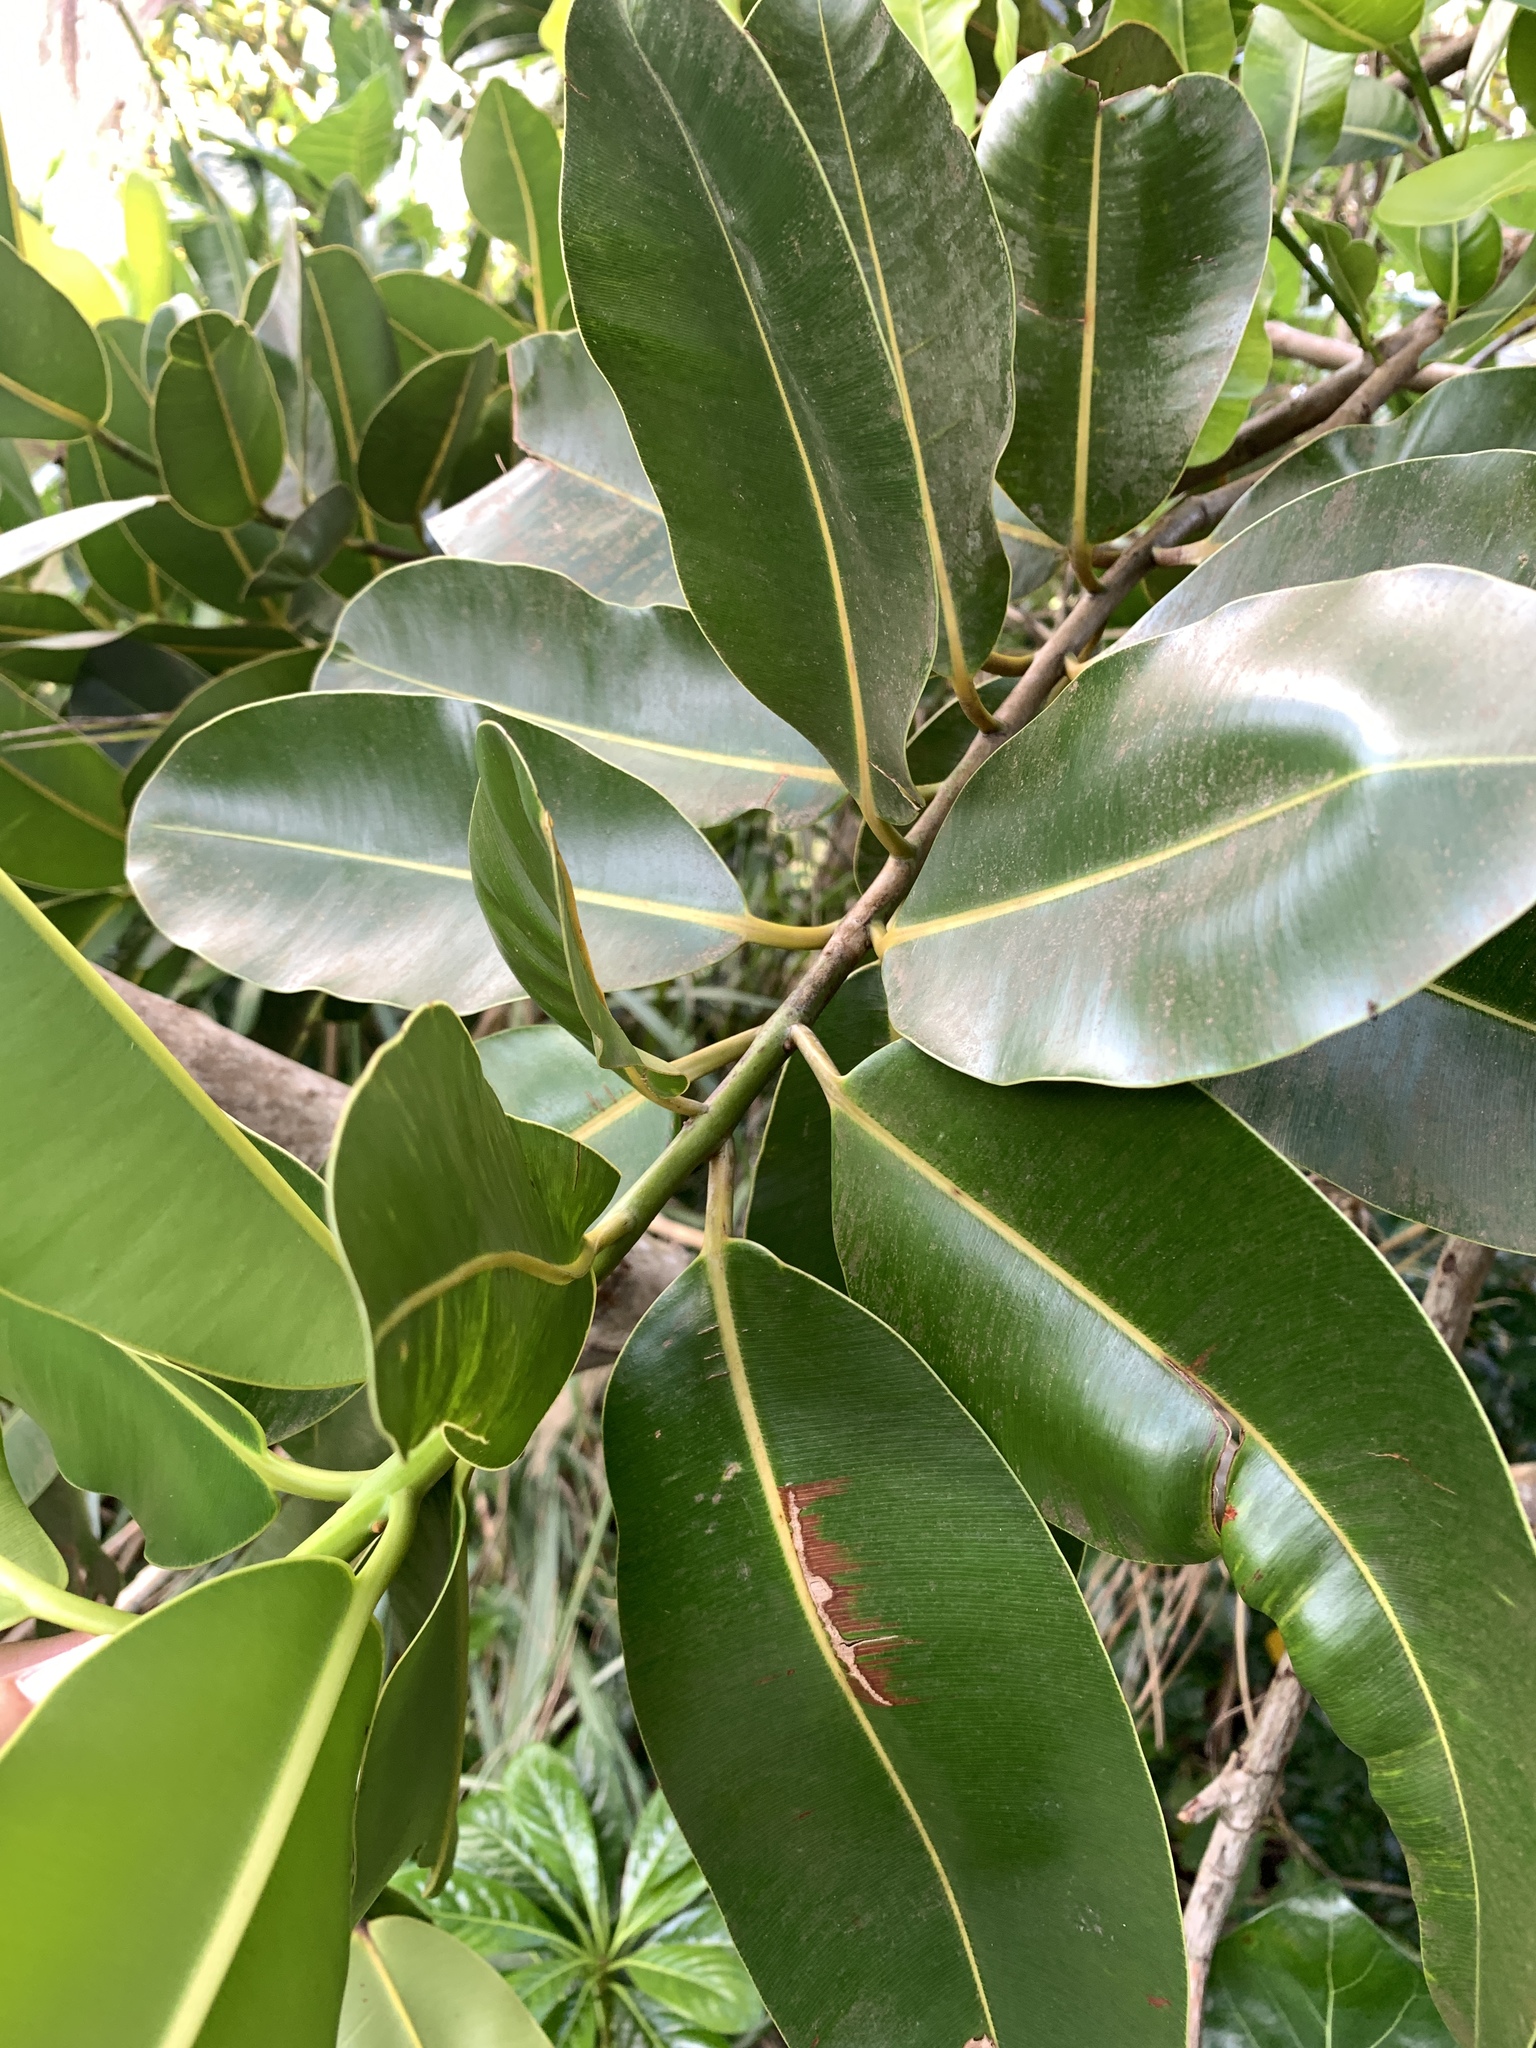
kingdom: Plantae
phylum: Tracheophyta
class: Magnoliopsida
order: Malpighiales
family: Calophyllaceae
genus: Calophyllum
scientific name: Calophyllum inophyllum
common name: Alexandrian laurel
